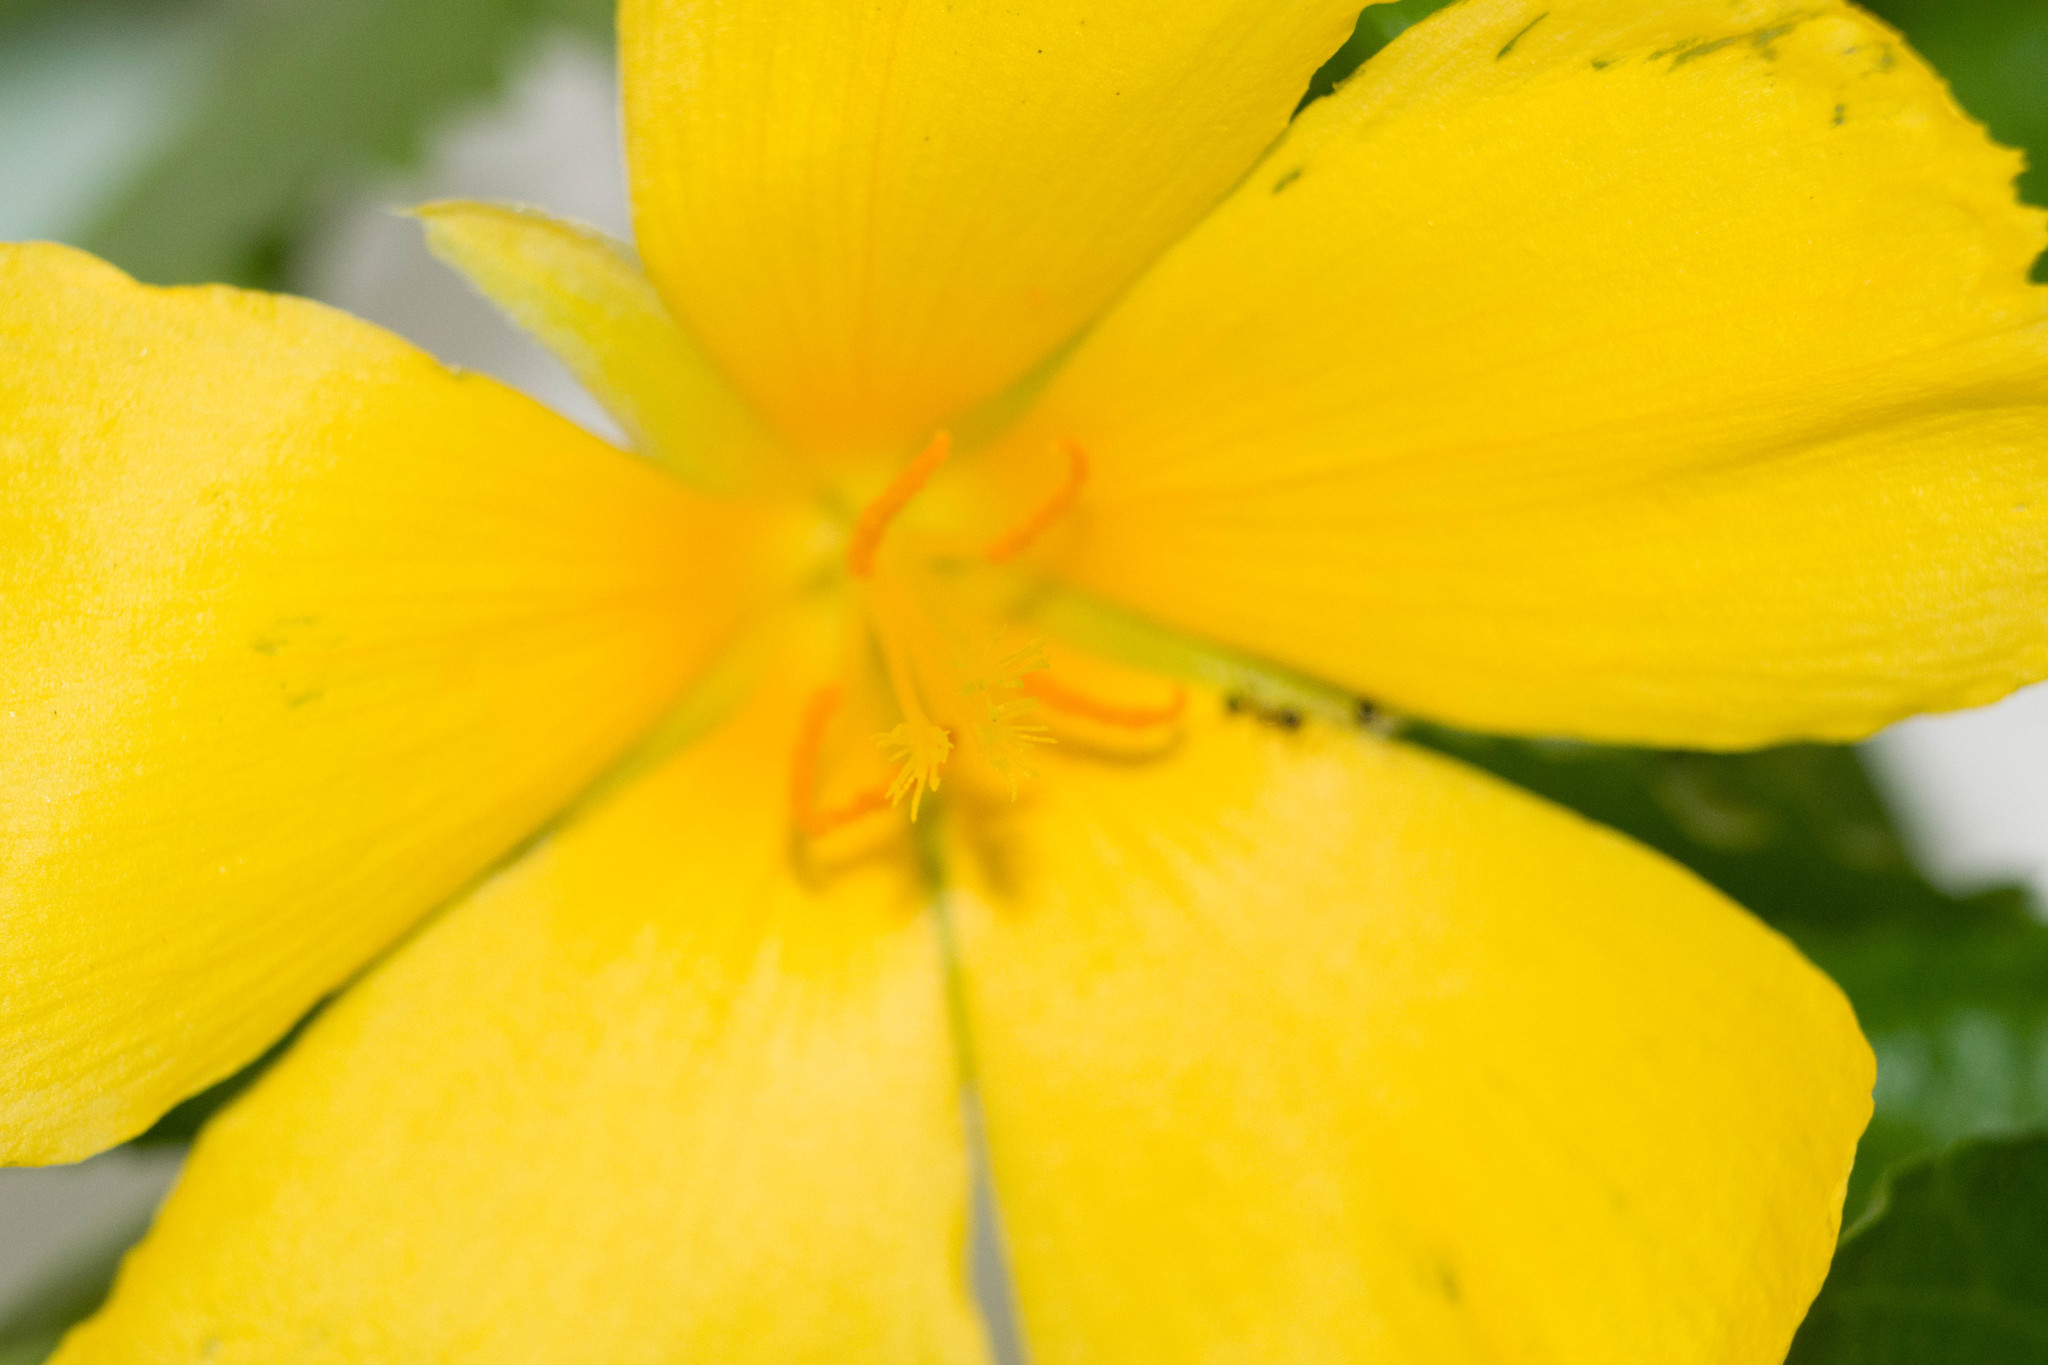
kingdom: Plantae
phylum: Tracheophyta
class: Magnoliopsida
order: Malpighiales
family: Turneraceae
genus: Turnera
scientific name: Turnera ulmifolia
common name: Ramgoat dashalong
